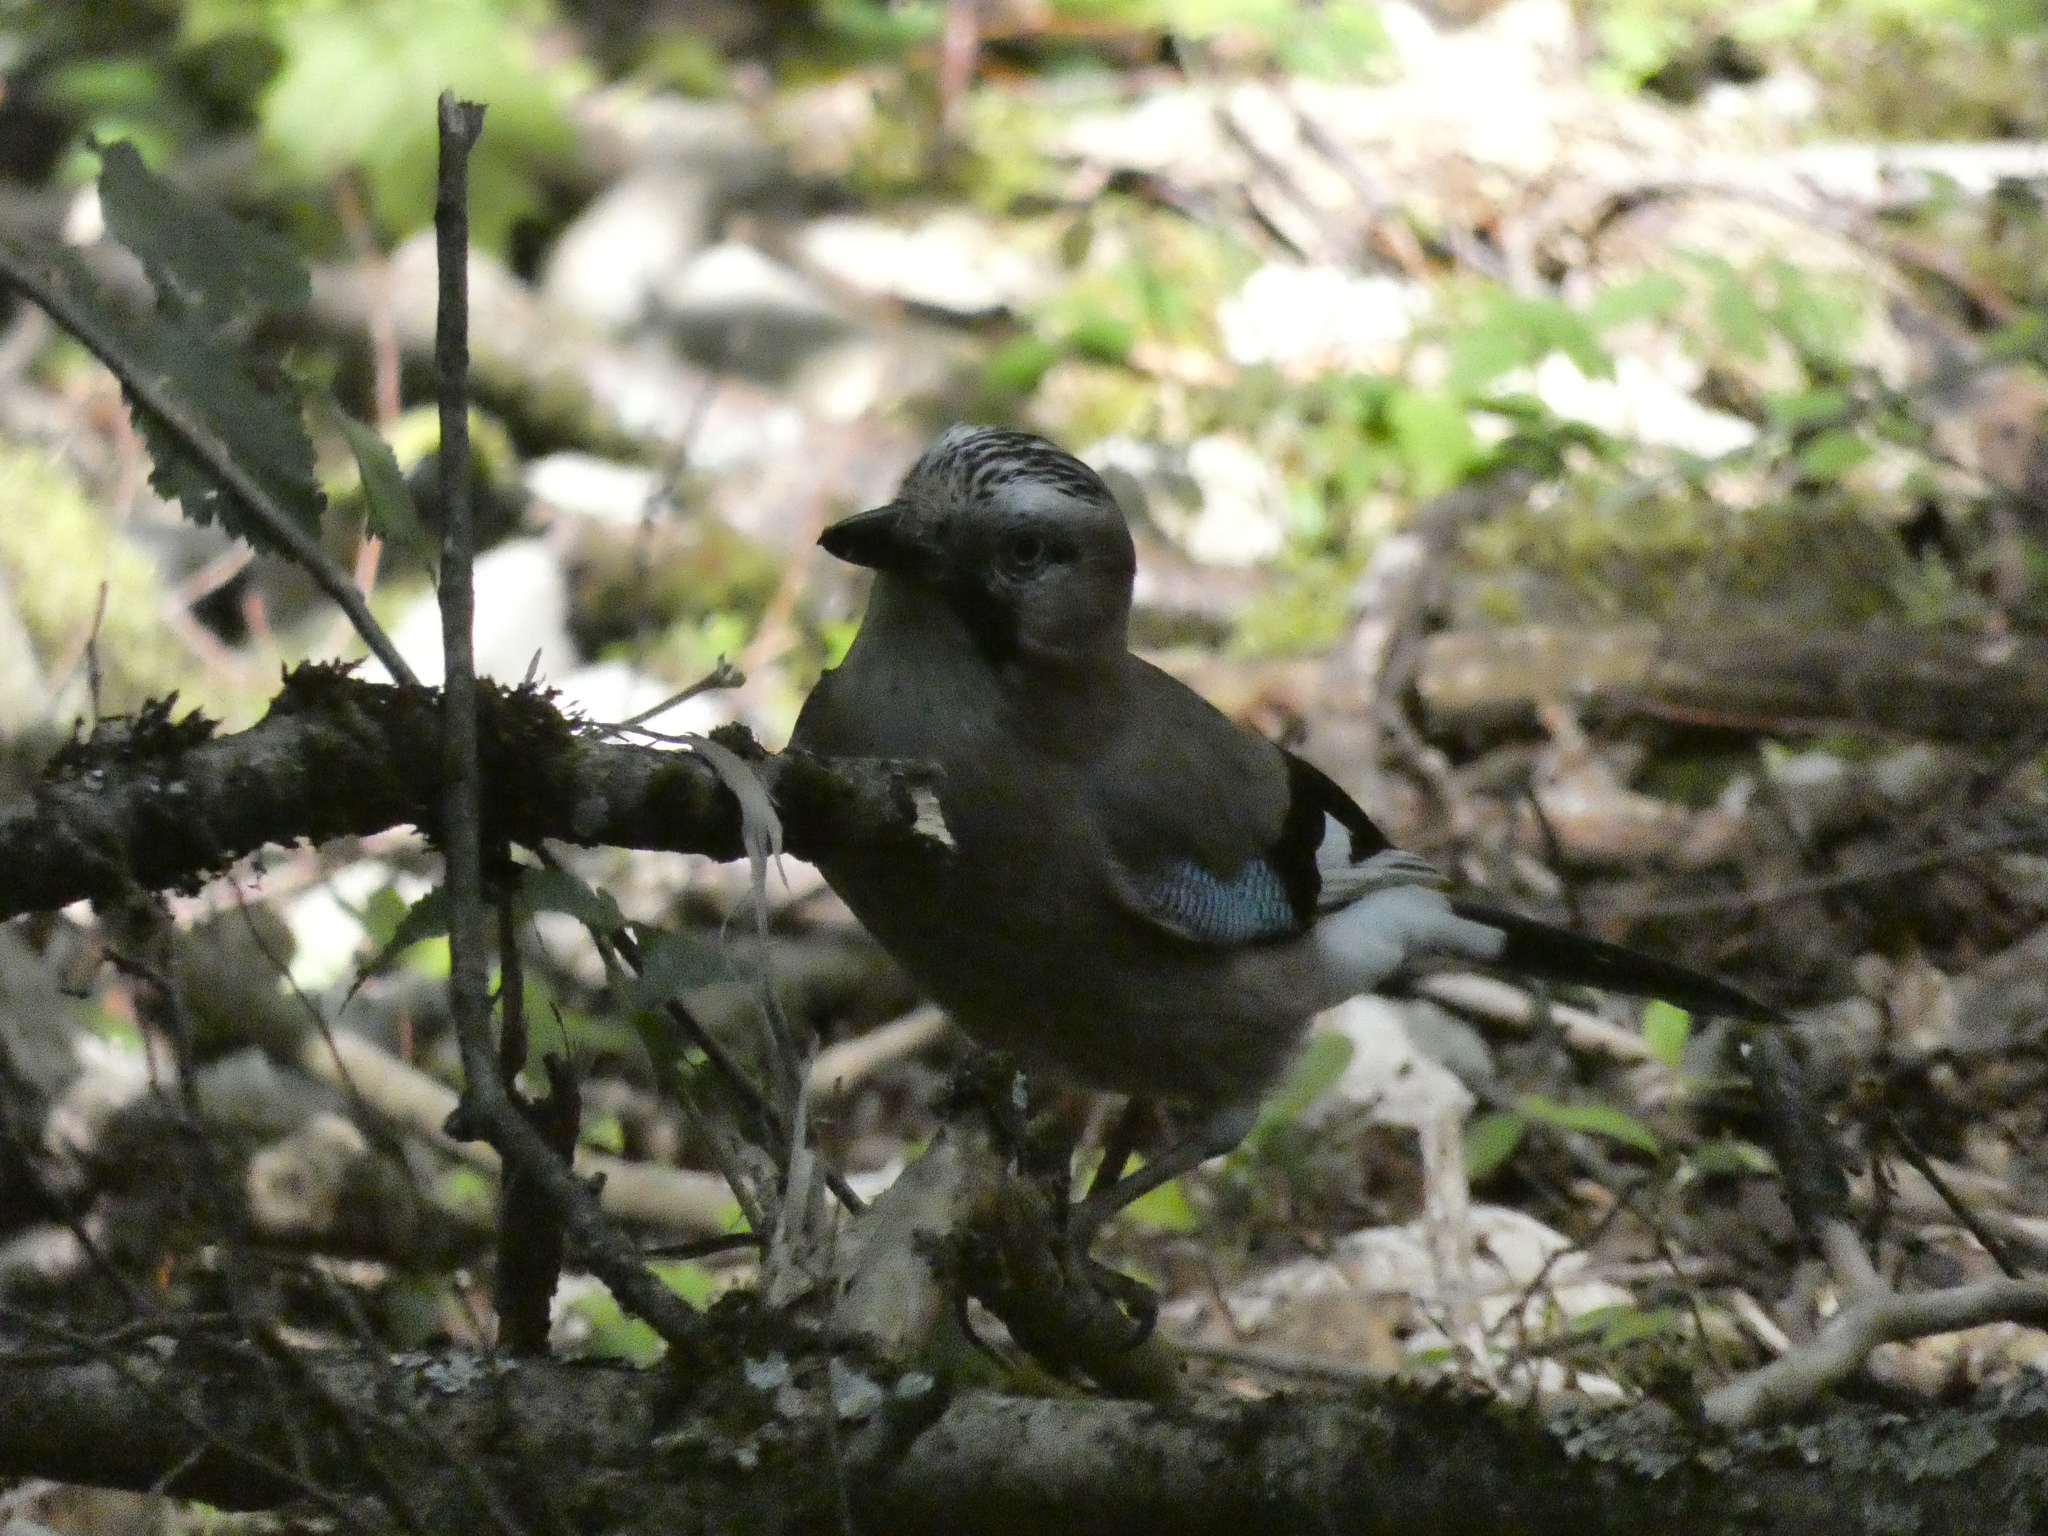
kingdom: Animalia
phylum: Chordata
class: Aves
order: Passeriformes
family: Corvidae
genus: Garrulus
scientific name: Garrulus glandarius
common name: Eurasian jay
